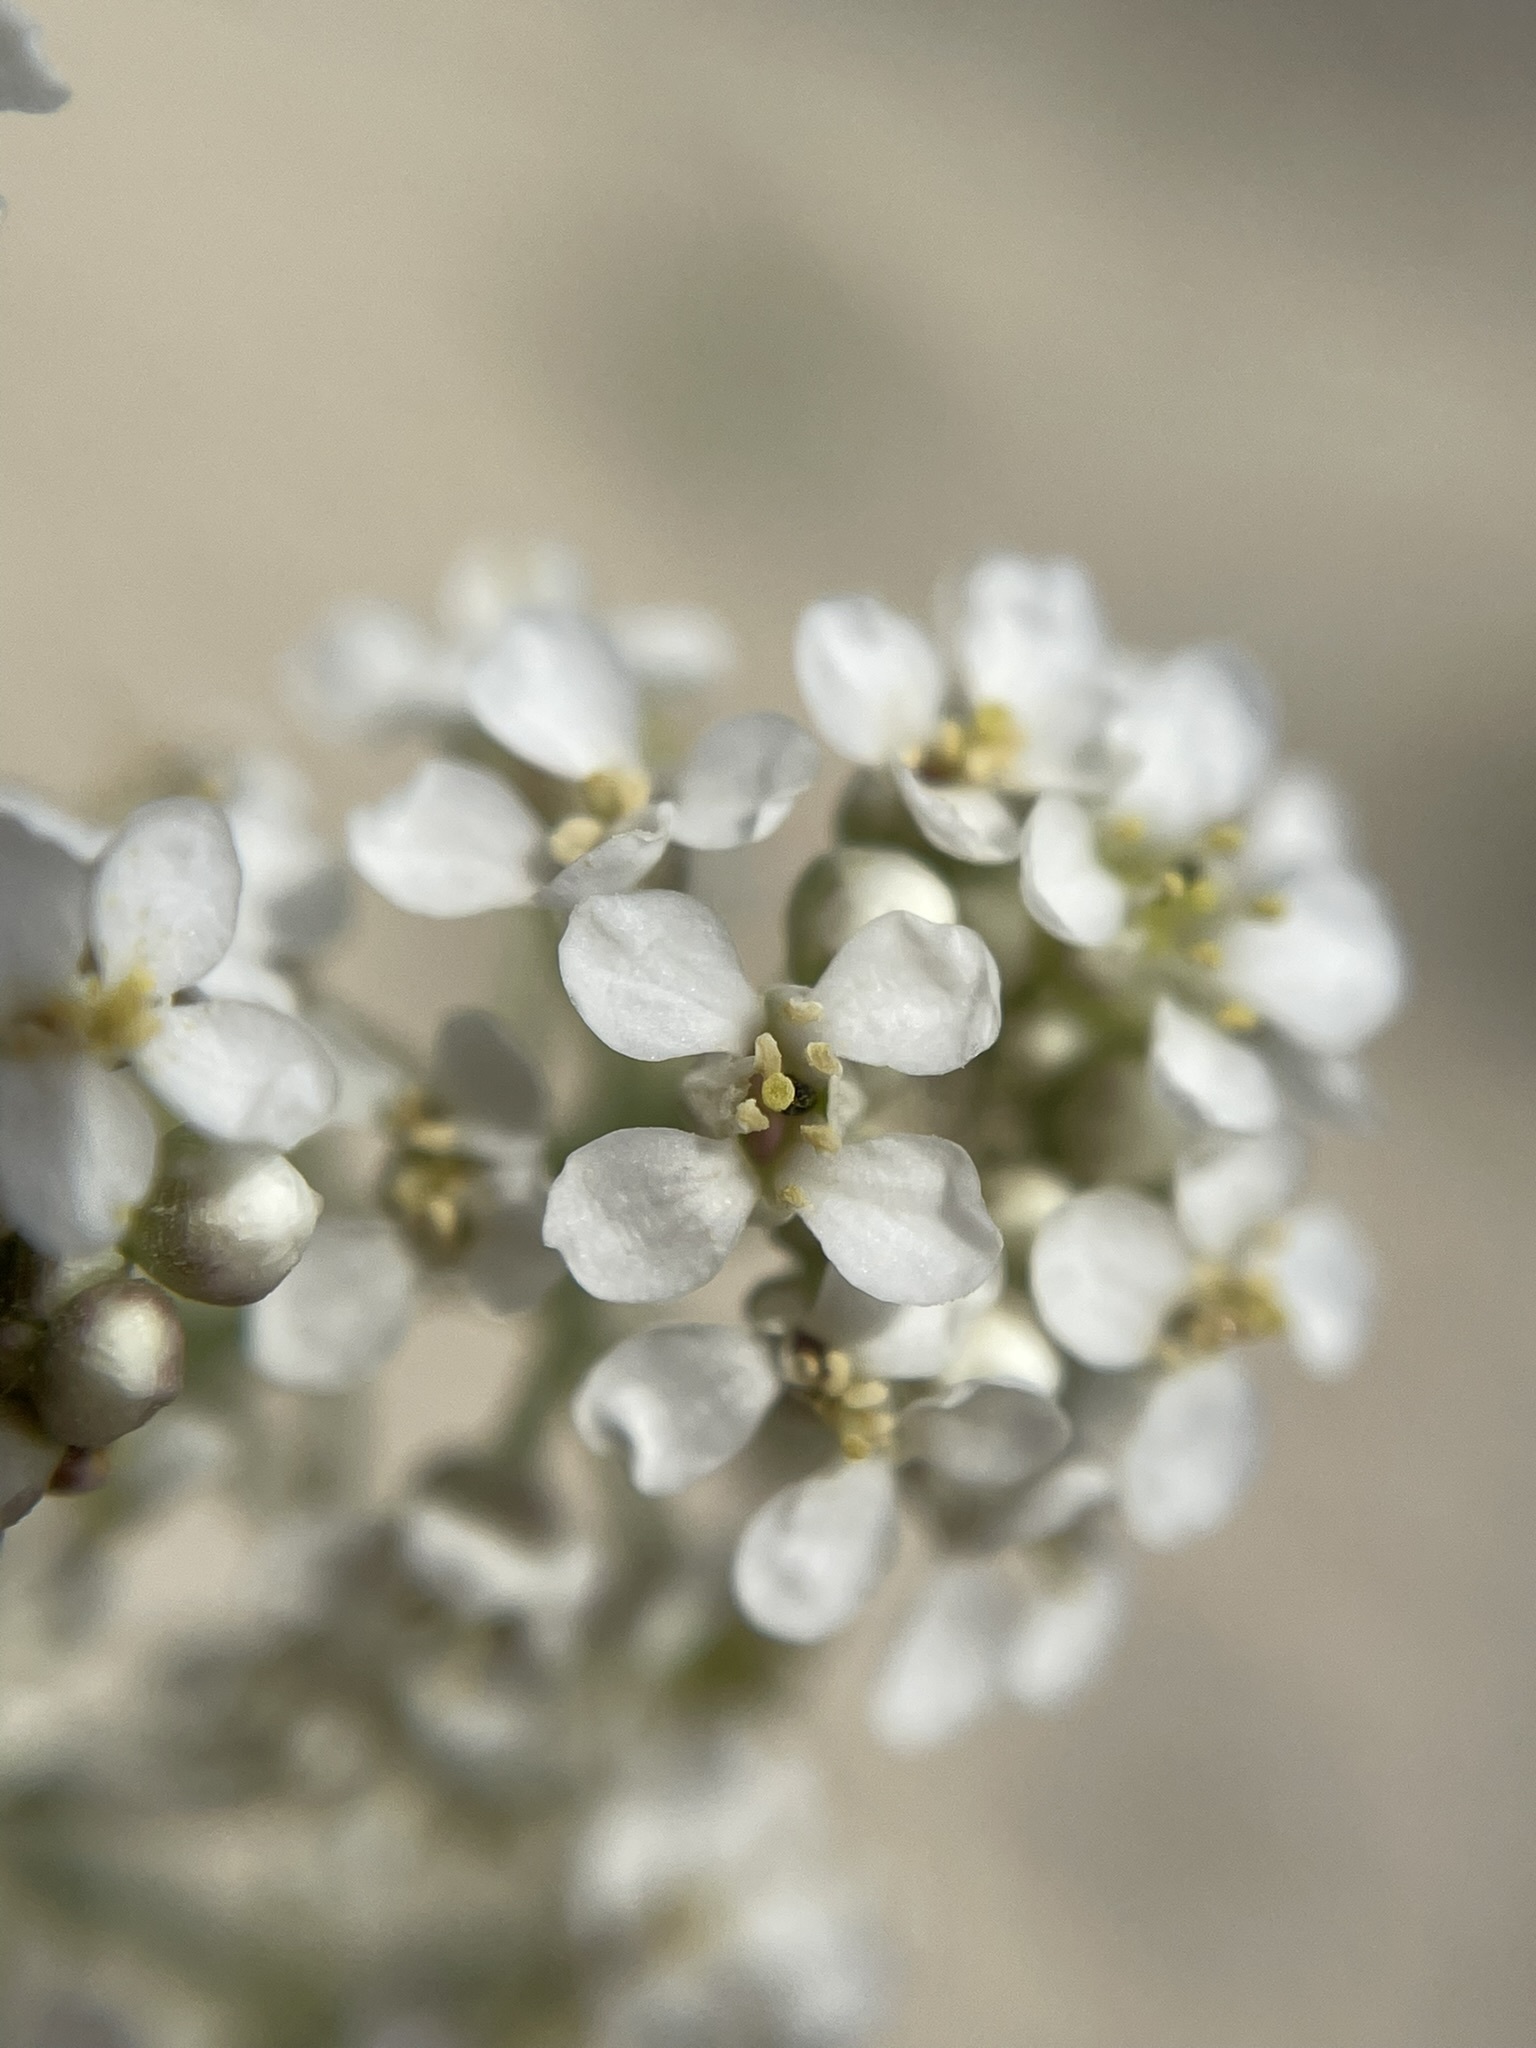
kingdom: Plantae
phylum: Tracheophyta
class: Magnoliopsida
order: Brassicales
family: Brassicaceae
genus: Lepidium
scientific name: Lepidium montanum
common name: Mountain pepperplant
